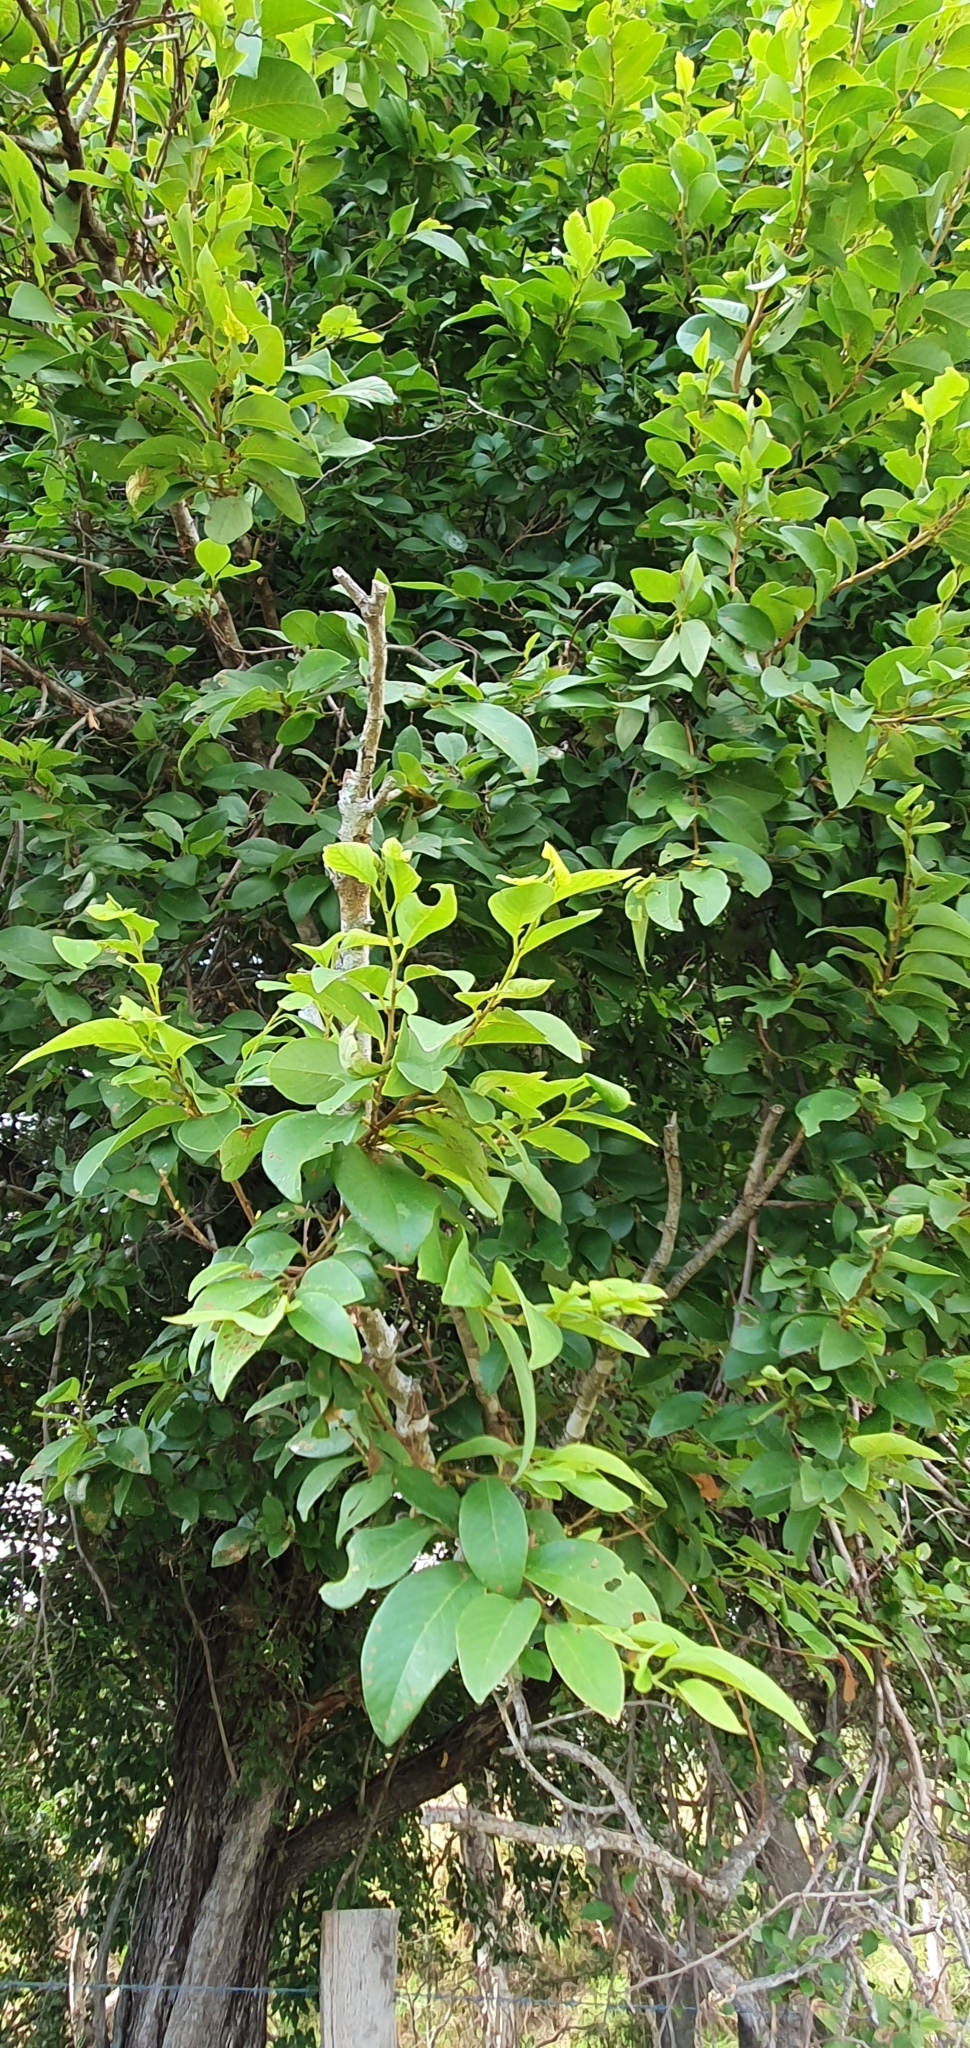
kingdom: Plantae
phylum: Tracheophyta
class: Magnoliopsida
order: Malpighiales
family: Phyllanthaceae
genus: Bridelia
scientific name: Bridelia leichhardtii
